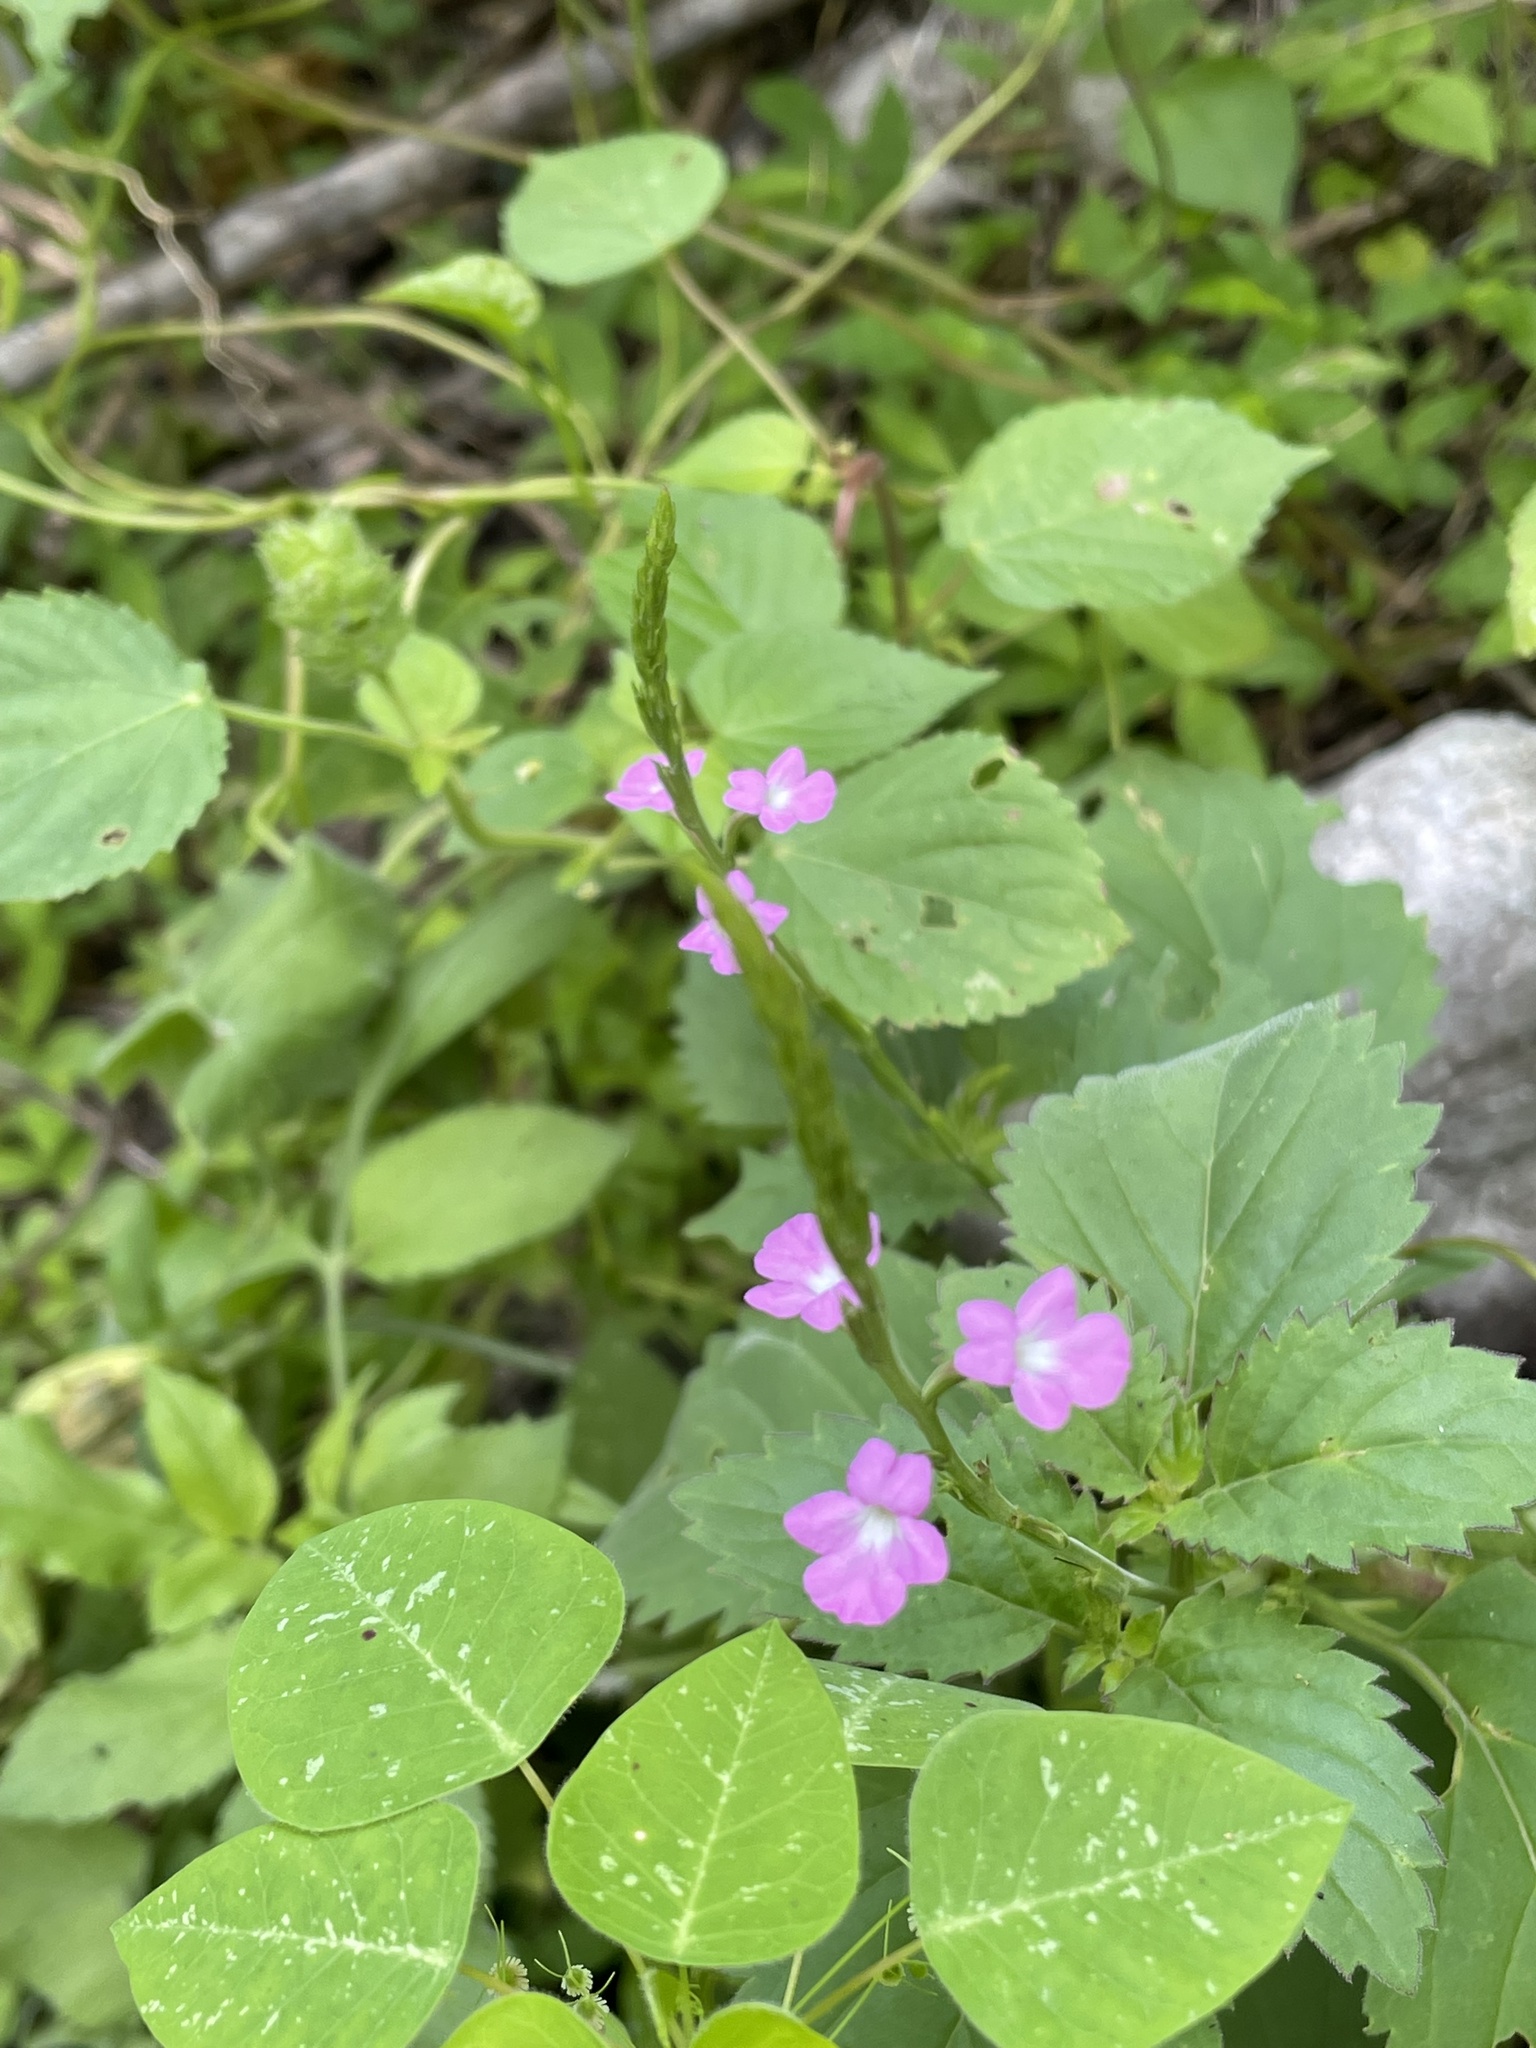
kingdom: Plantae
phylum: Tracheophyta
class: Magnoliopsida
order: Lamiales
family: Verbenaceae
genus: Bouchea
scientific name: Bouchea prismatica
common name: Vervine
